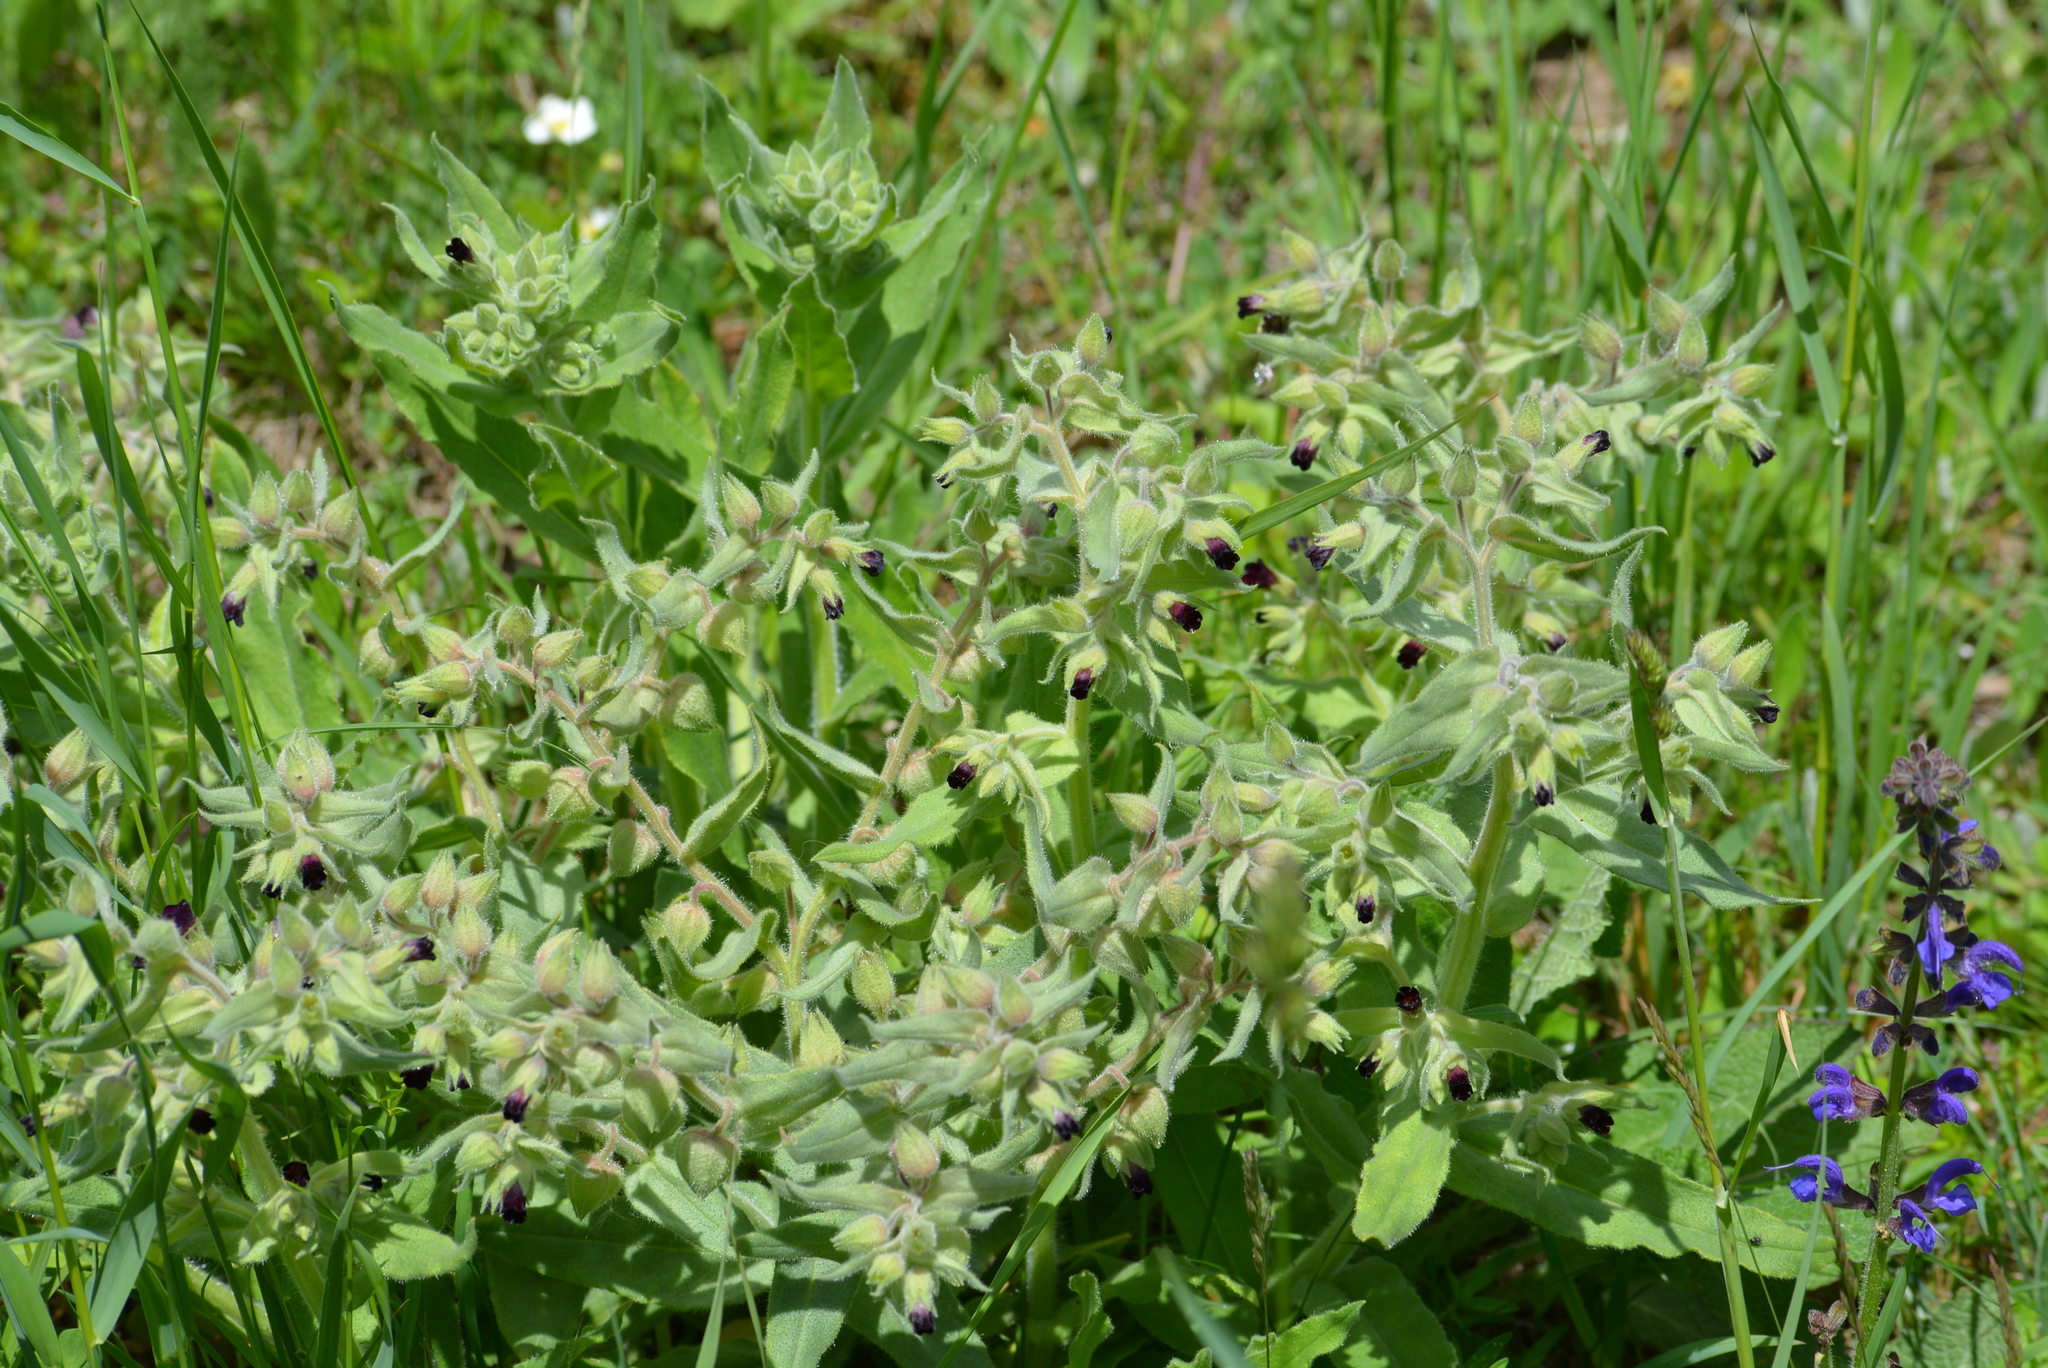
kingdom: Plantae
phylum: Tracheophyta
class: Magnoliopsida
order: Boraginales
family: Boraginaceae
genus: Nonea
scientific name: Nonea pulla
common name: Brown nonea
